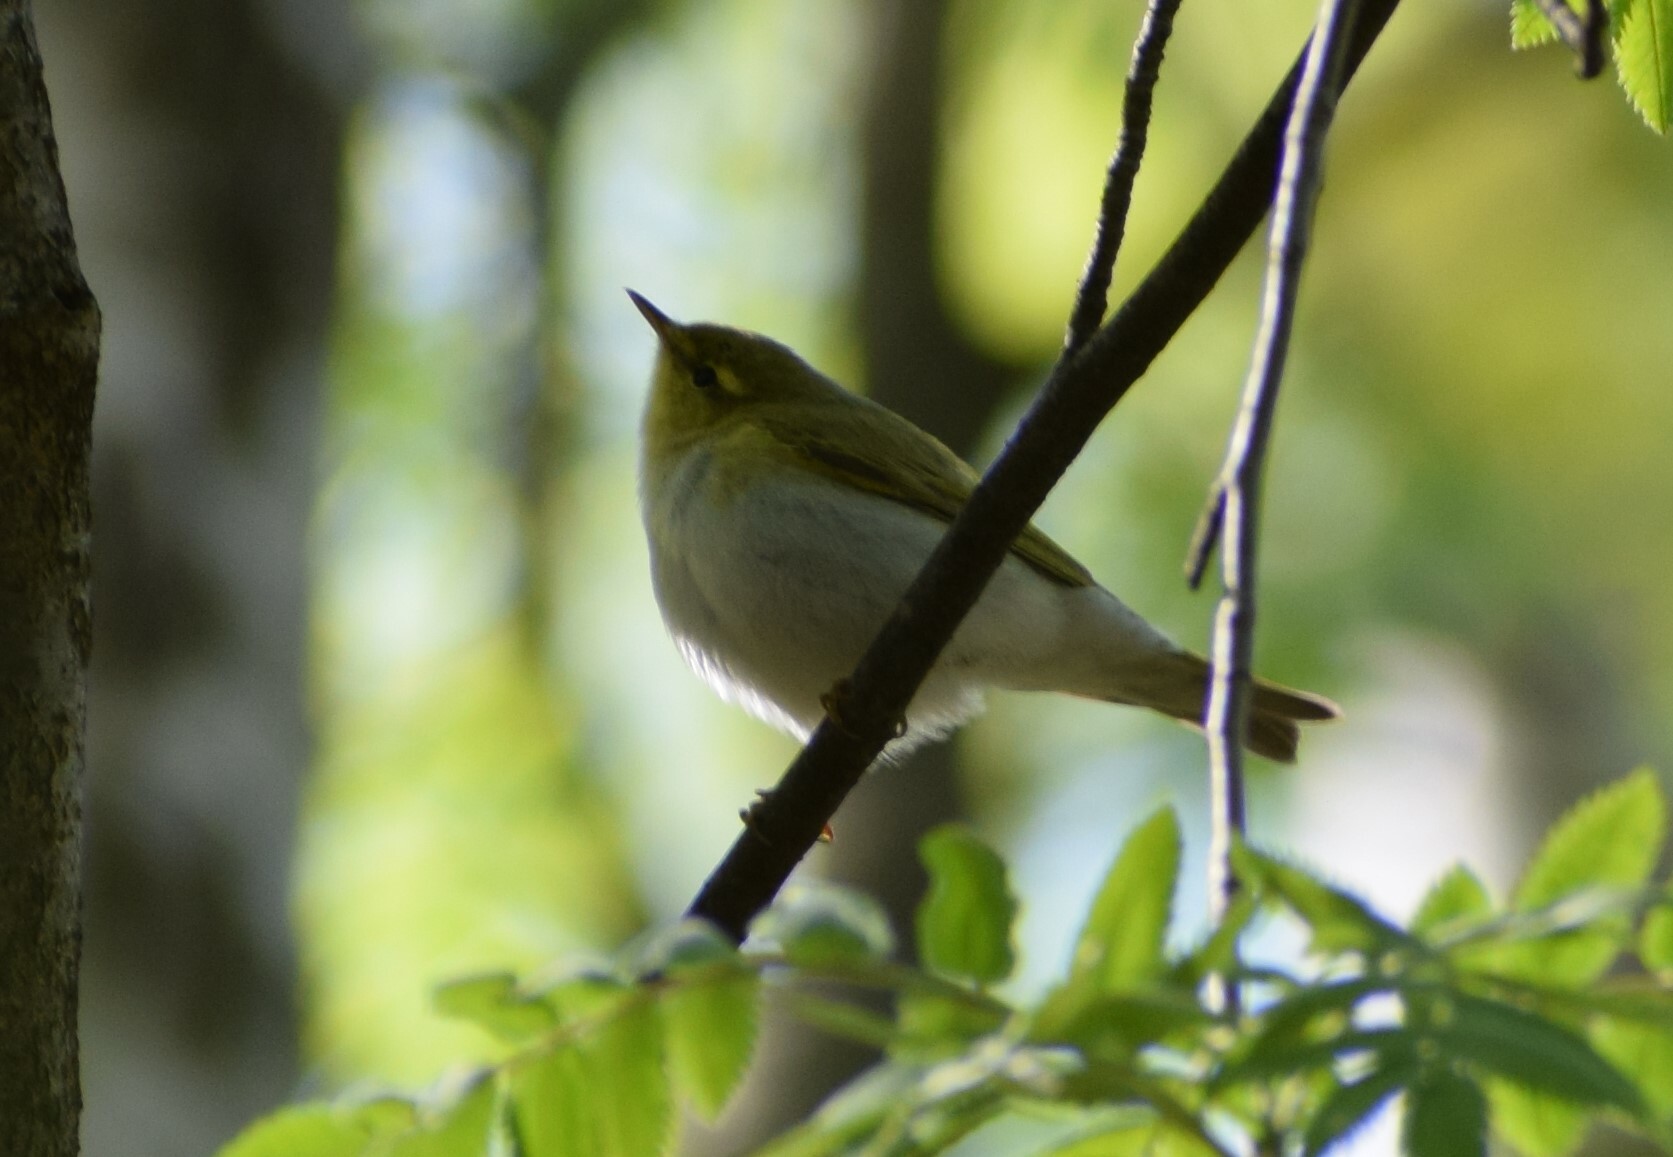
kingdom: Animalia
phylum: Chordata
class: Aves
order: Passeriformes
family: Phylloscopidae
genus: Phylloscopus
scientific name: Phylloscopus sibillatrix
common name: Wood warbler
